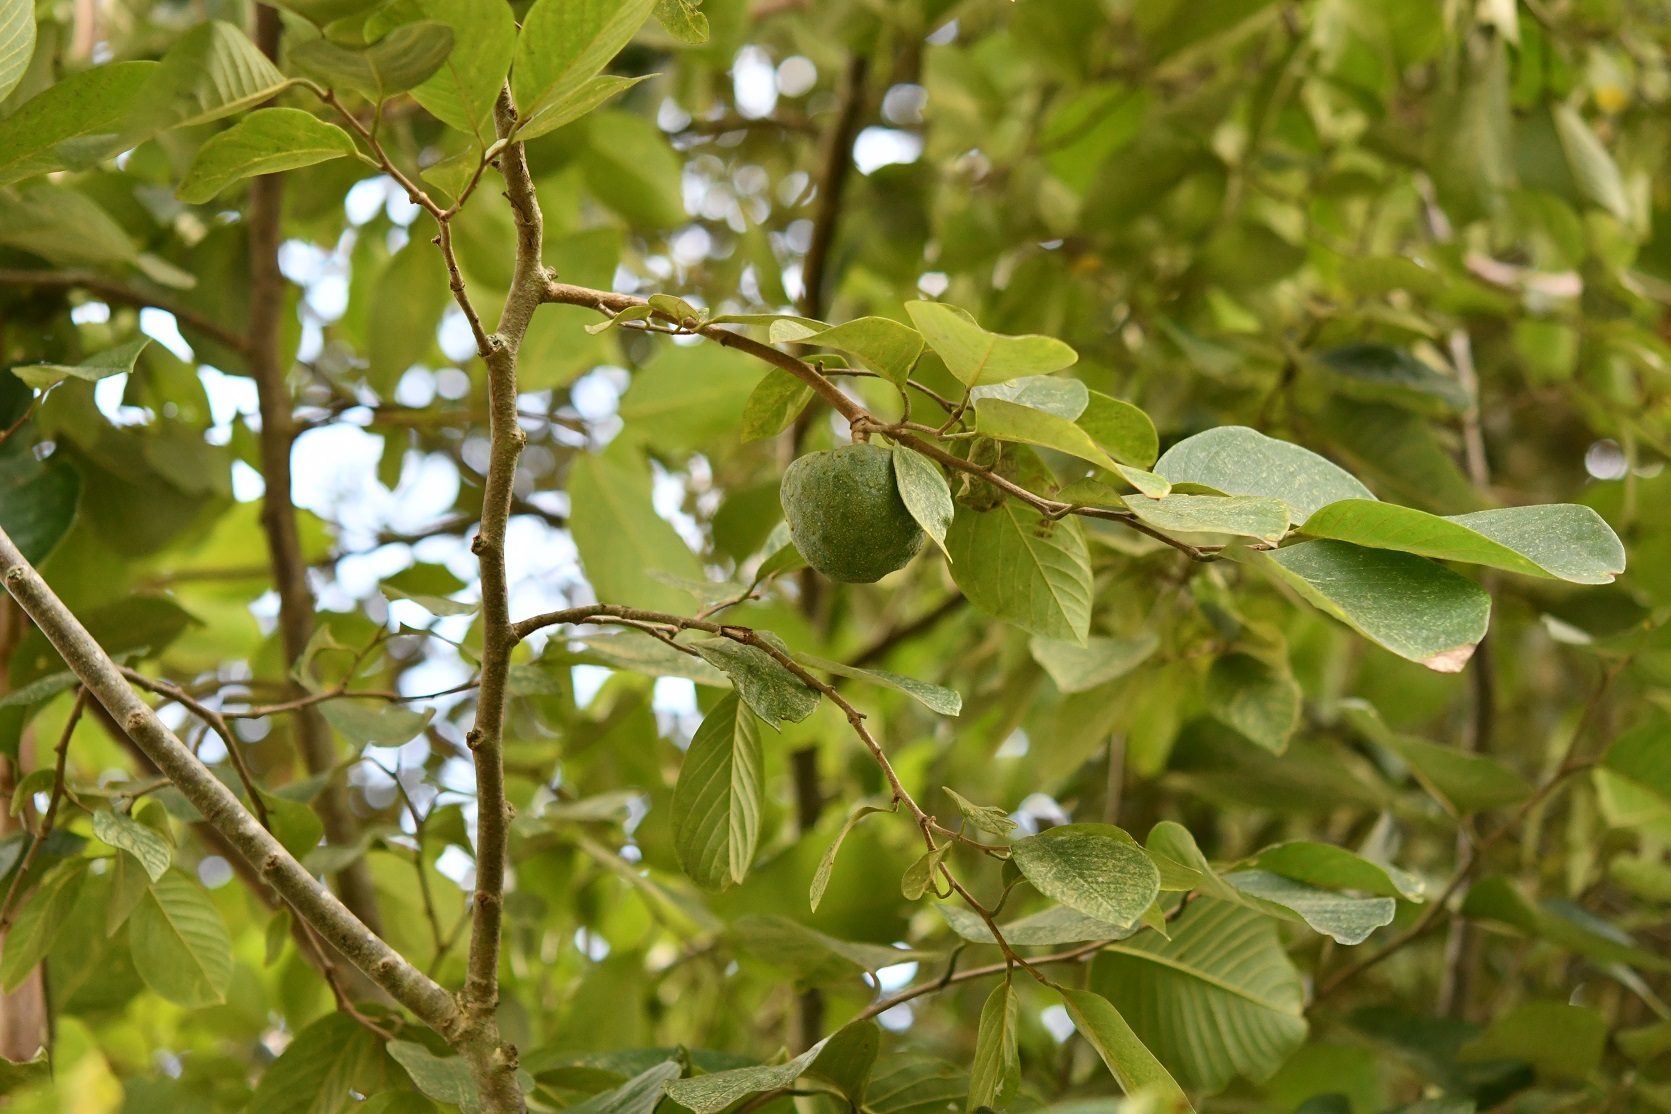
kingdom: Plantae
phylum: Tracheophyta
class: Magnoliopsida
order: Magnoliales
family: Annonaceae
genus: Annona
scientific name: Annona cherimola
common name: Cherimoya
